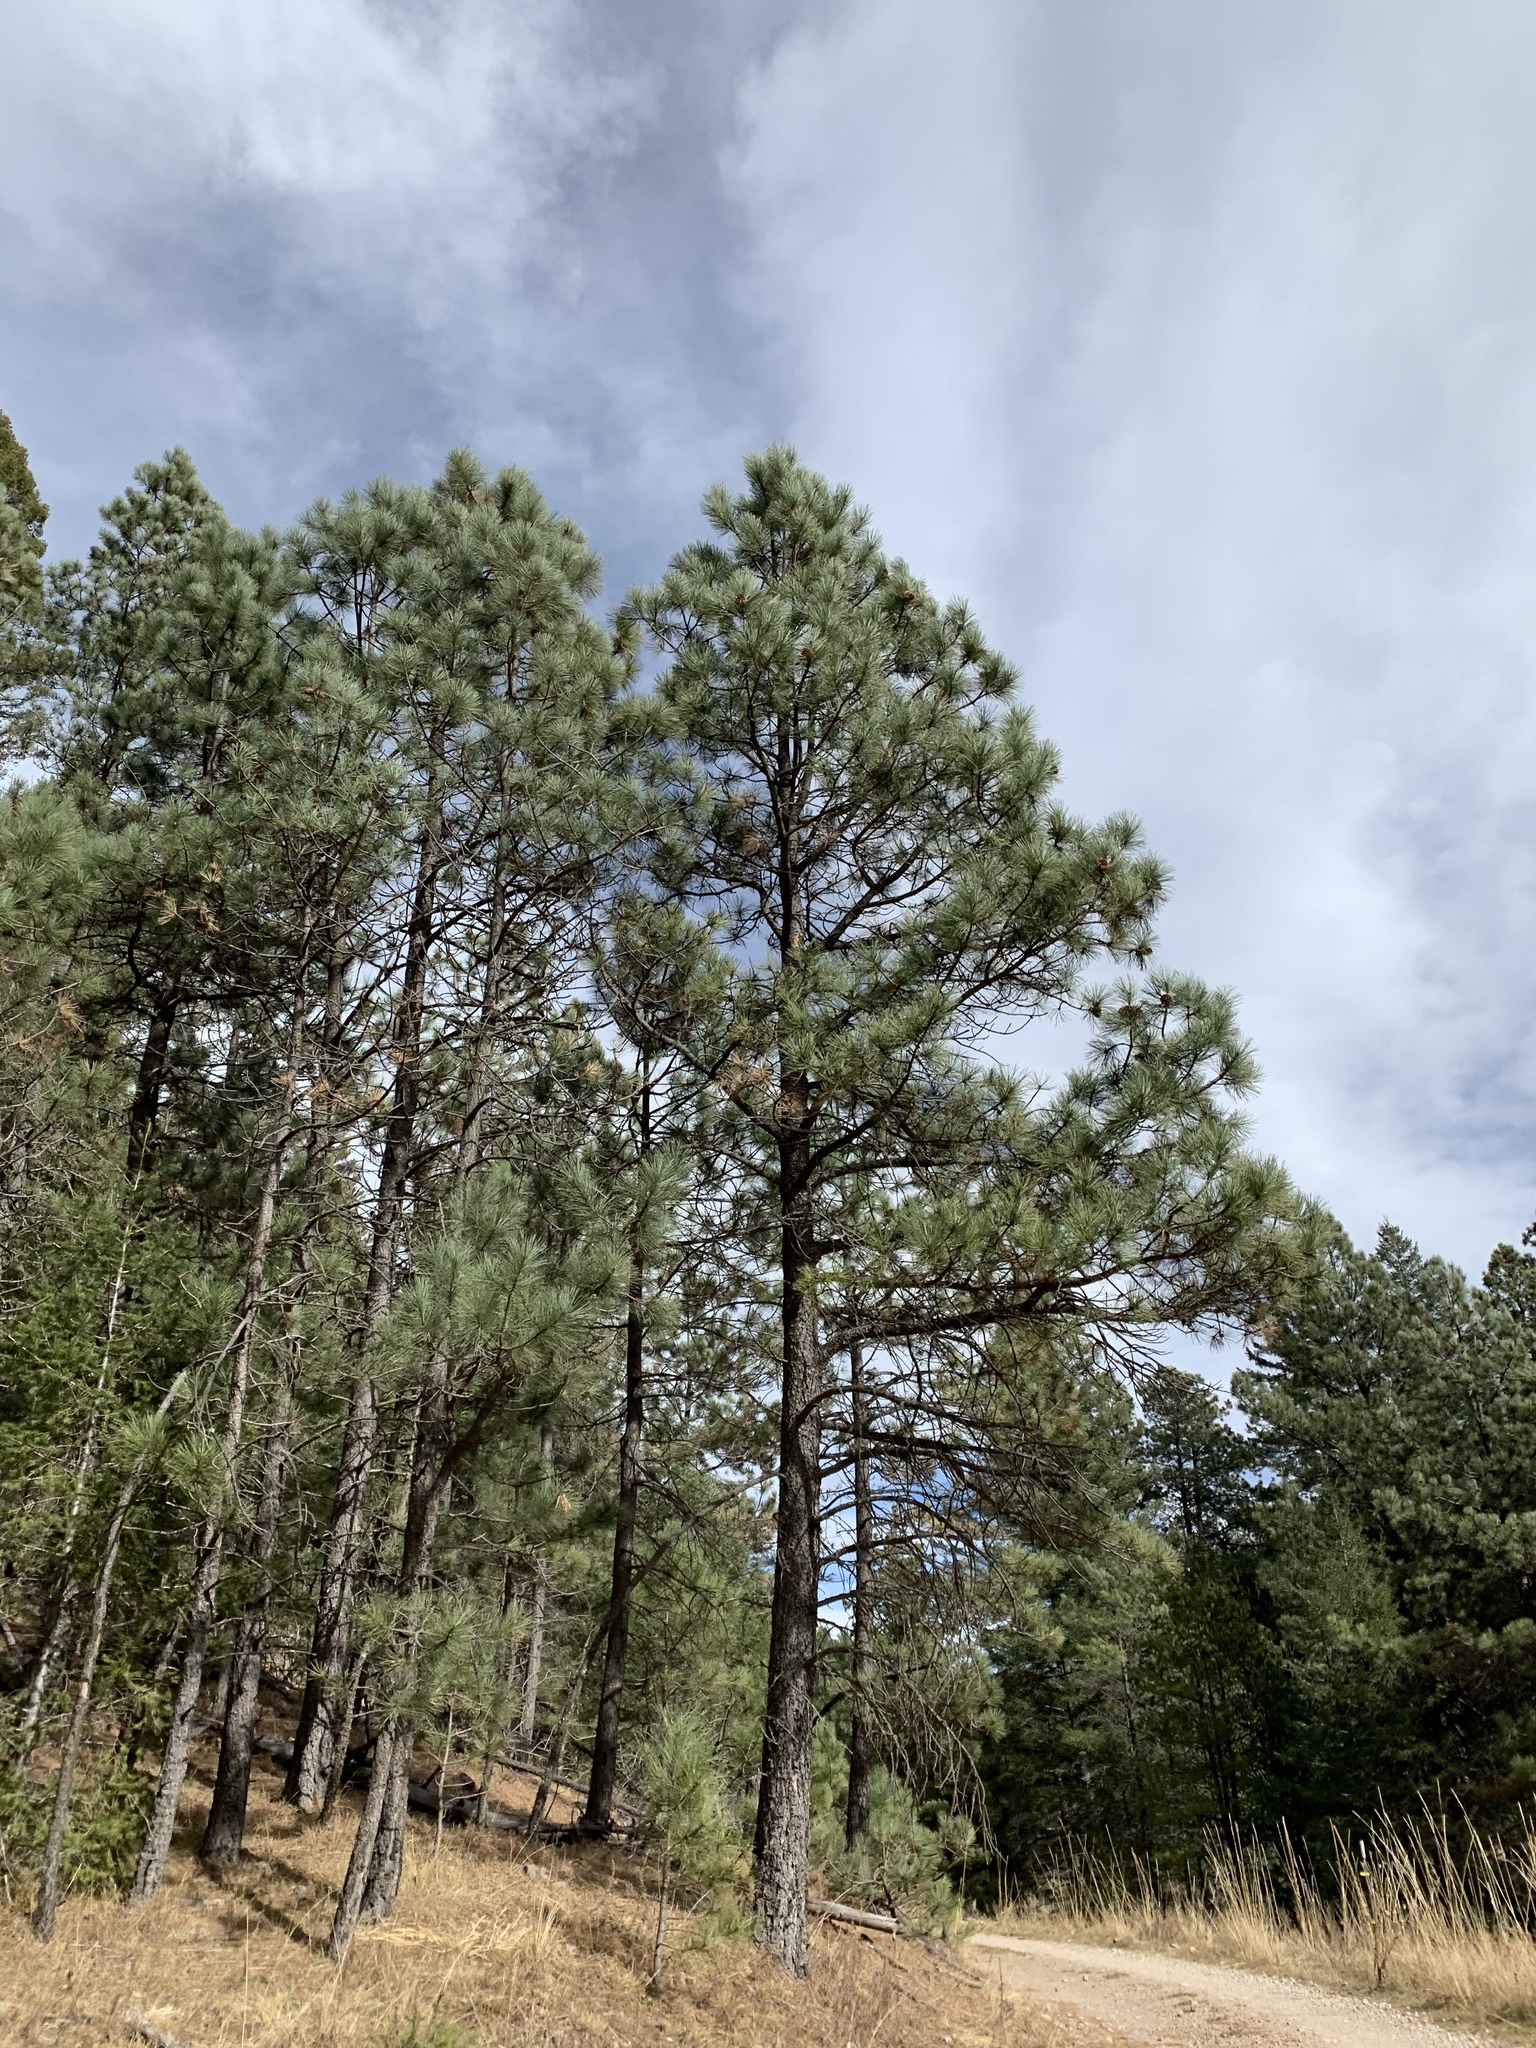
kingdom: Plantae
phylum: Tracheophyta
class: Pinopsida
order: Pinales
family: Pinaceae
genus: Pinus
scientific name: Pinus ponderosa
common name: Western yellow-pine
